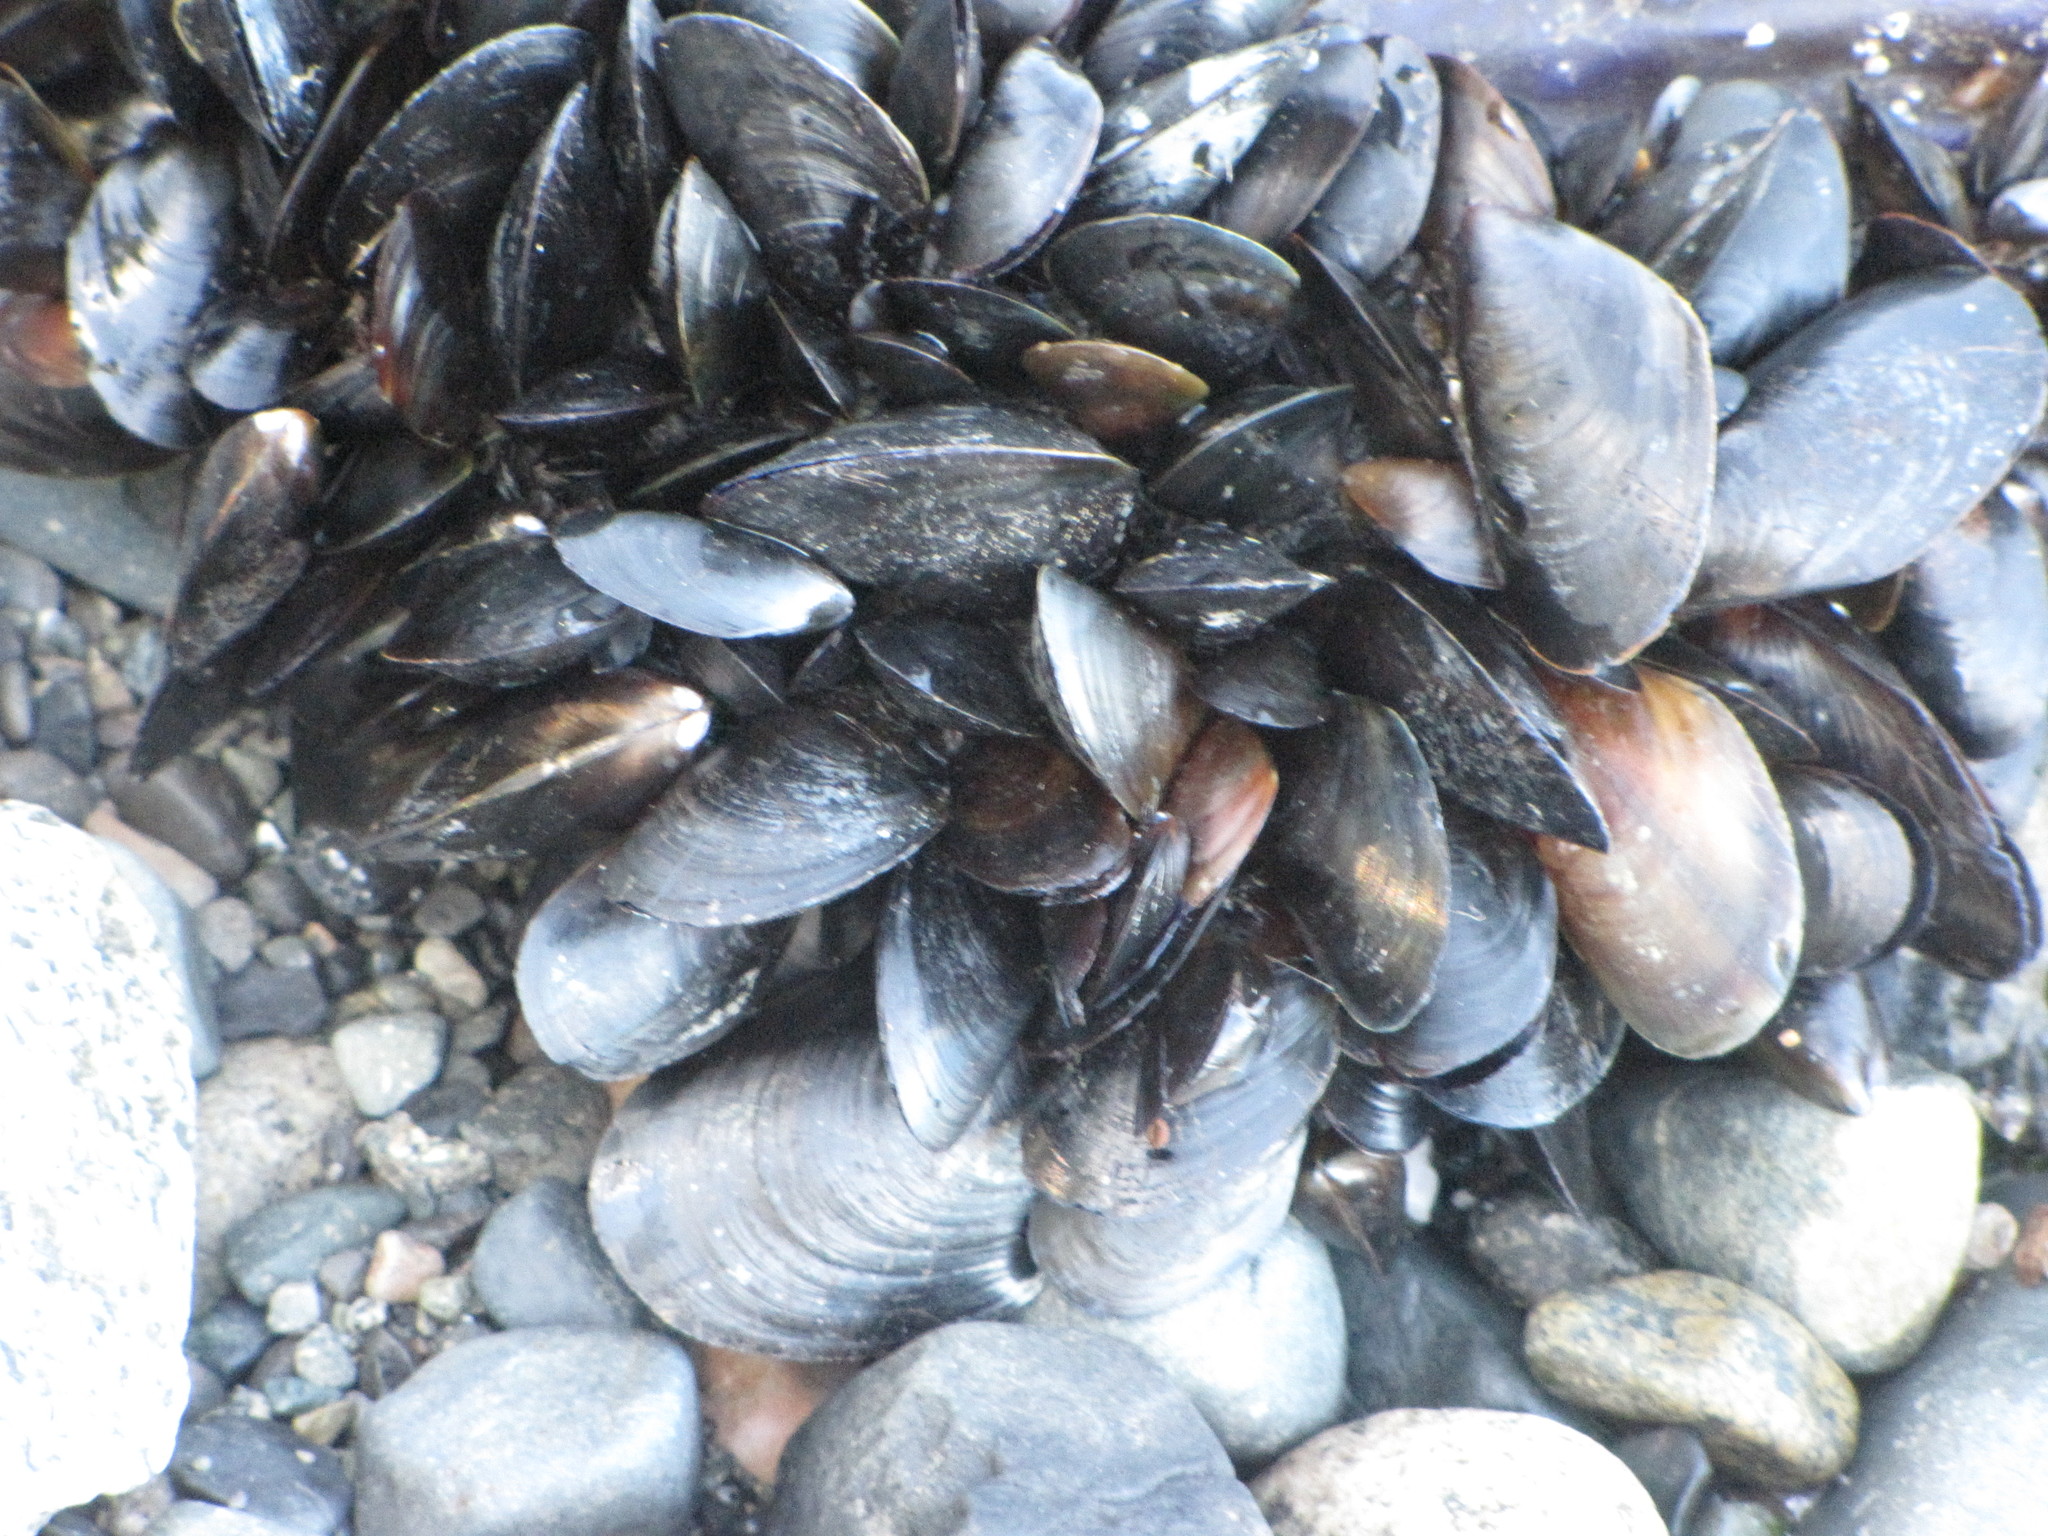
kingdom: Animalia
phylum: Mollusca
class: Bivalvia
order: Mytilida
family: Mytilidae
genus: Mytilus
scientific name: Mytilus
